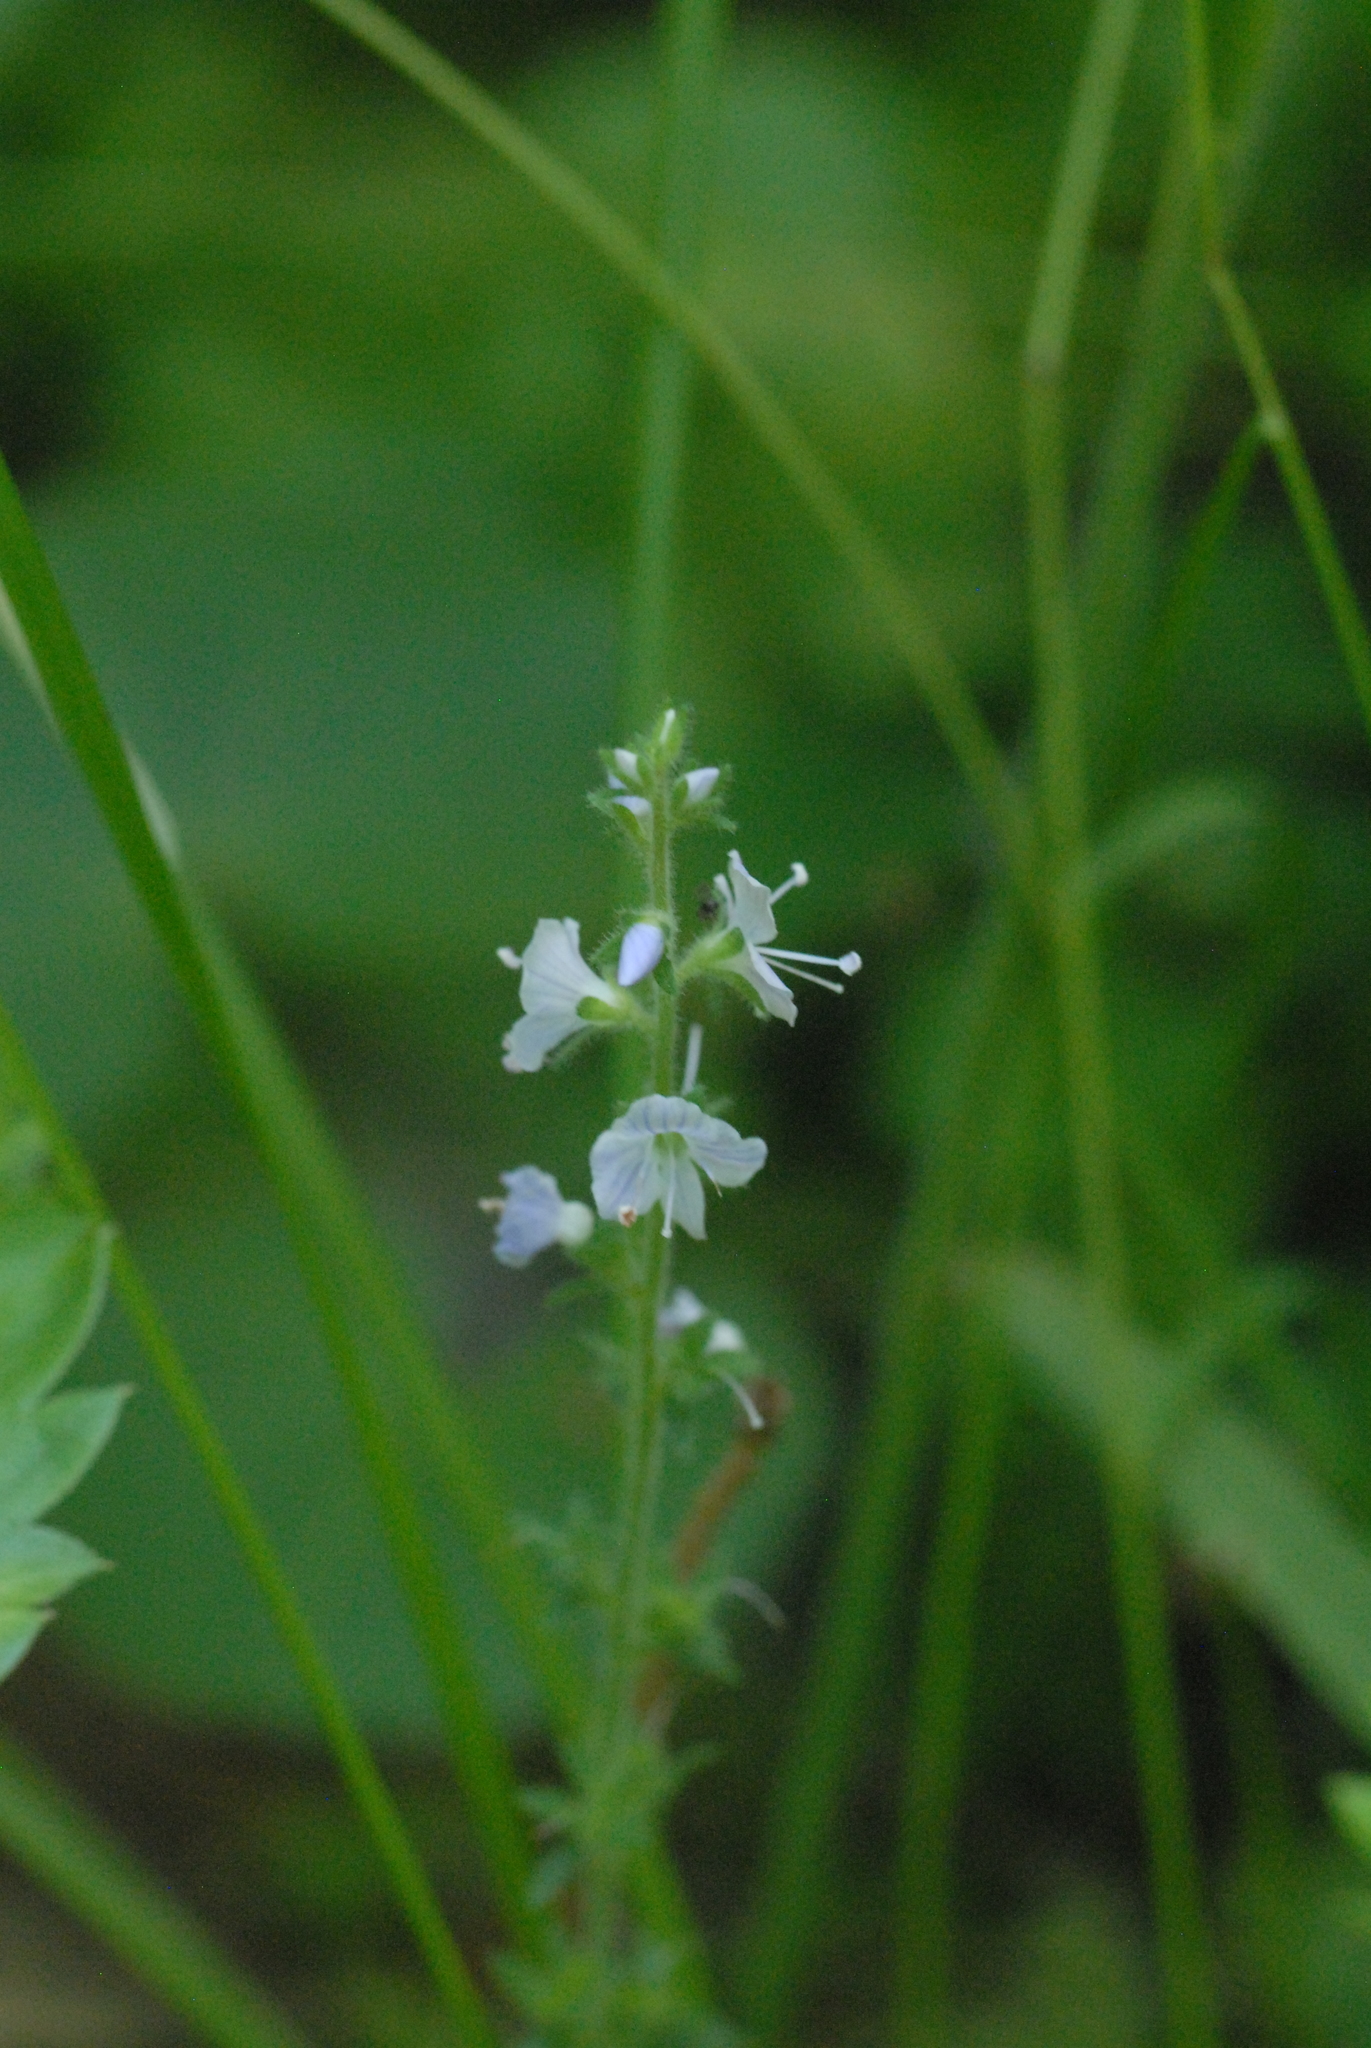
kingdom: Plantae
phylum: Tracheophyta
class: Magnoliopsida
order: Lamiales
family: Plantaginaceae
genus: Veronica
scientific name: Veronica officinalis
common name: Common speedwell
